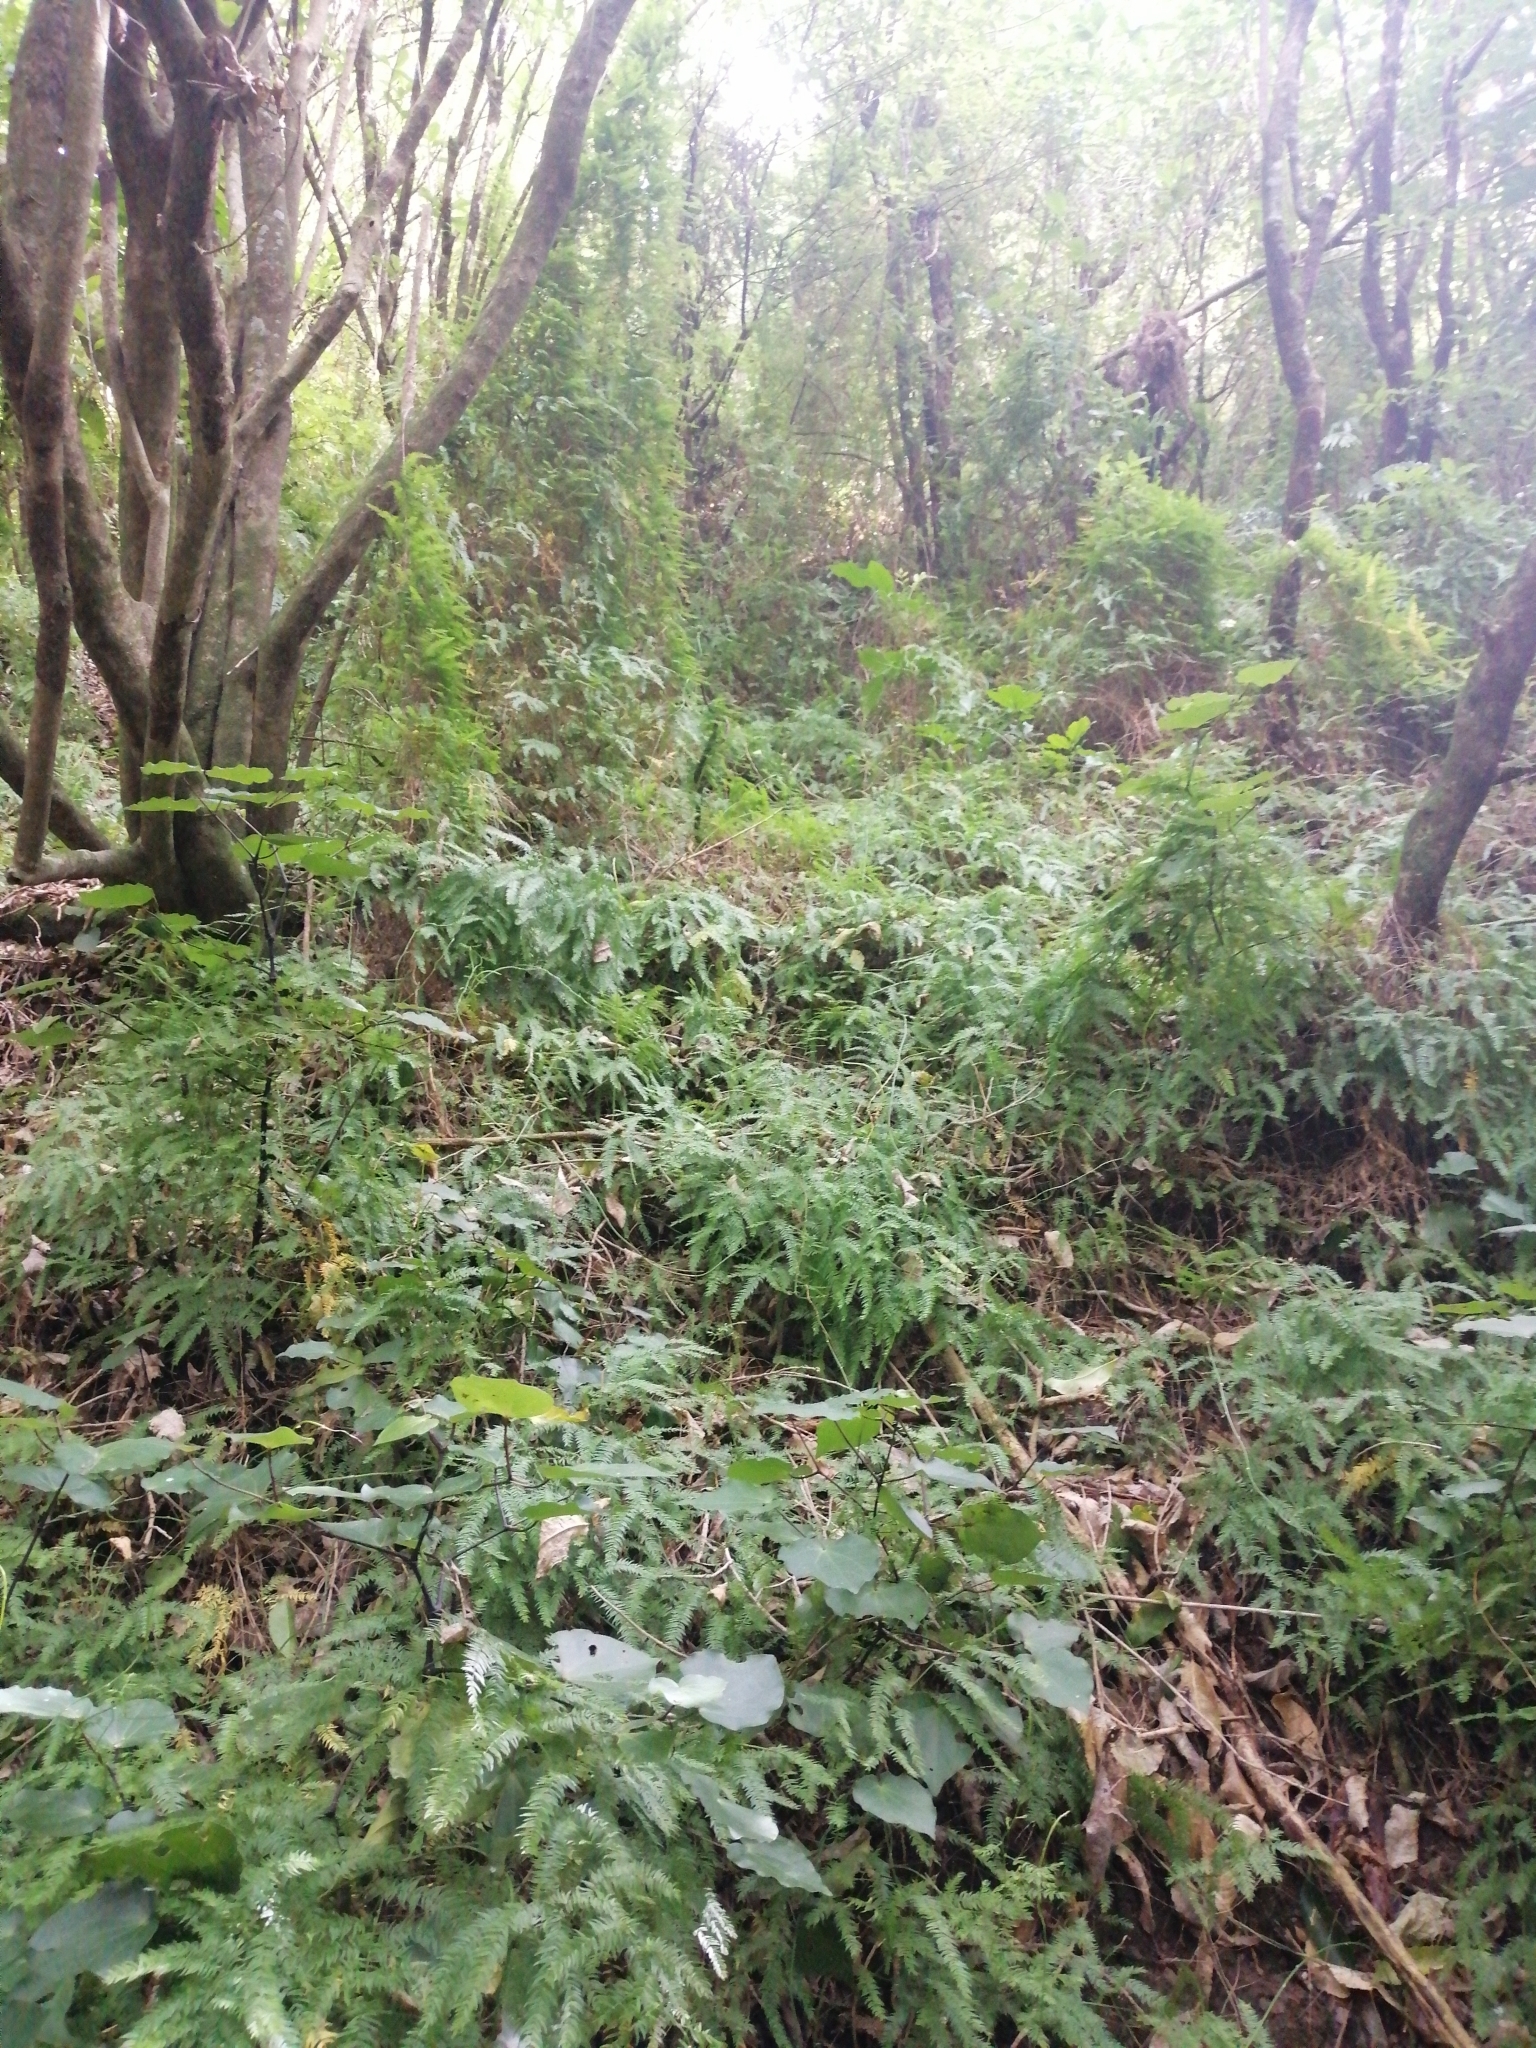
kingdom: Plantae
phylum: Tracheophyta
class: Liliopsida
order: Asparagales
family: Asparagaceae
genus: Asparagus
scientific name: Asparagus scandens
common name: Asparagus-fern
